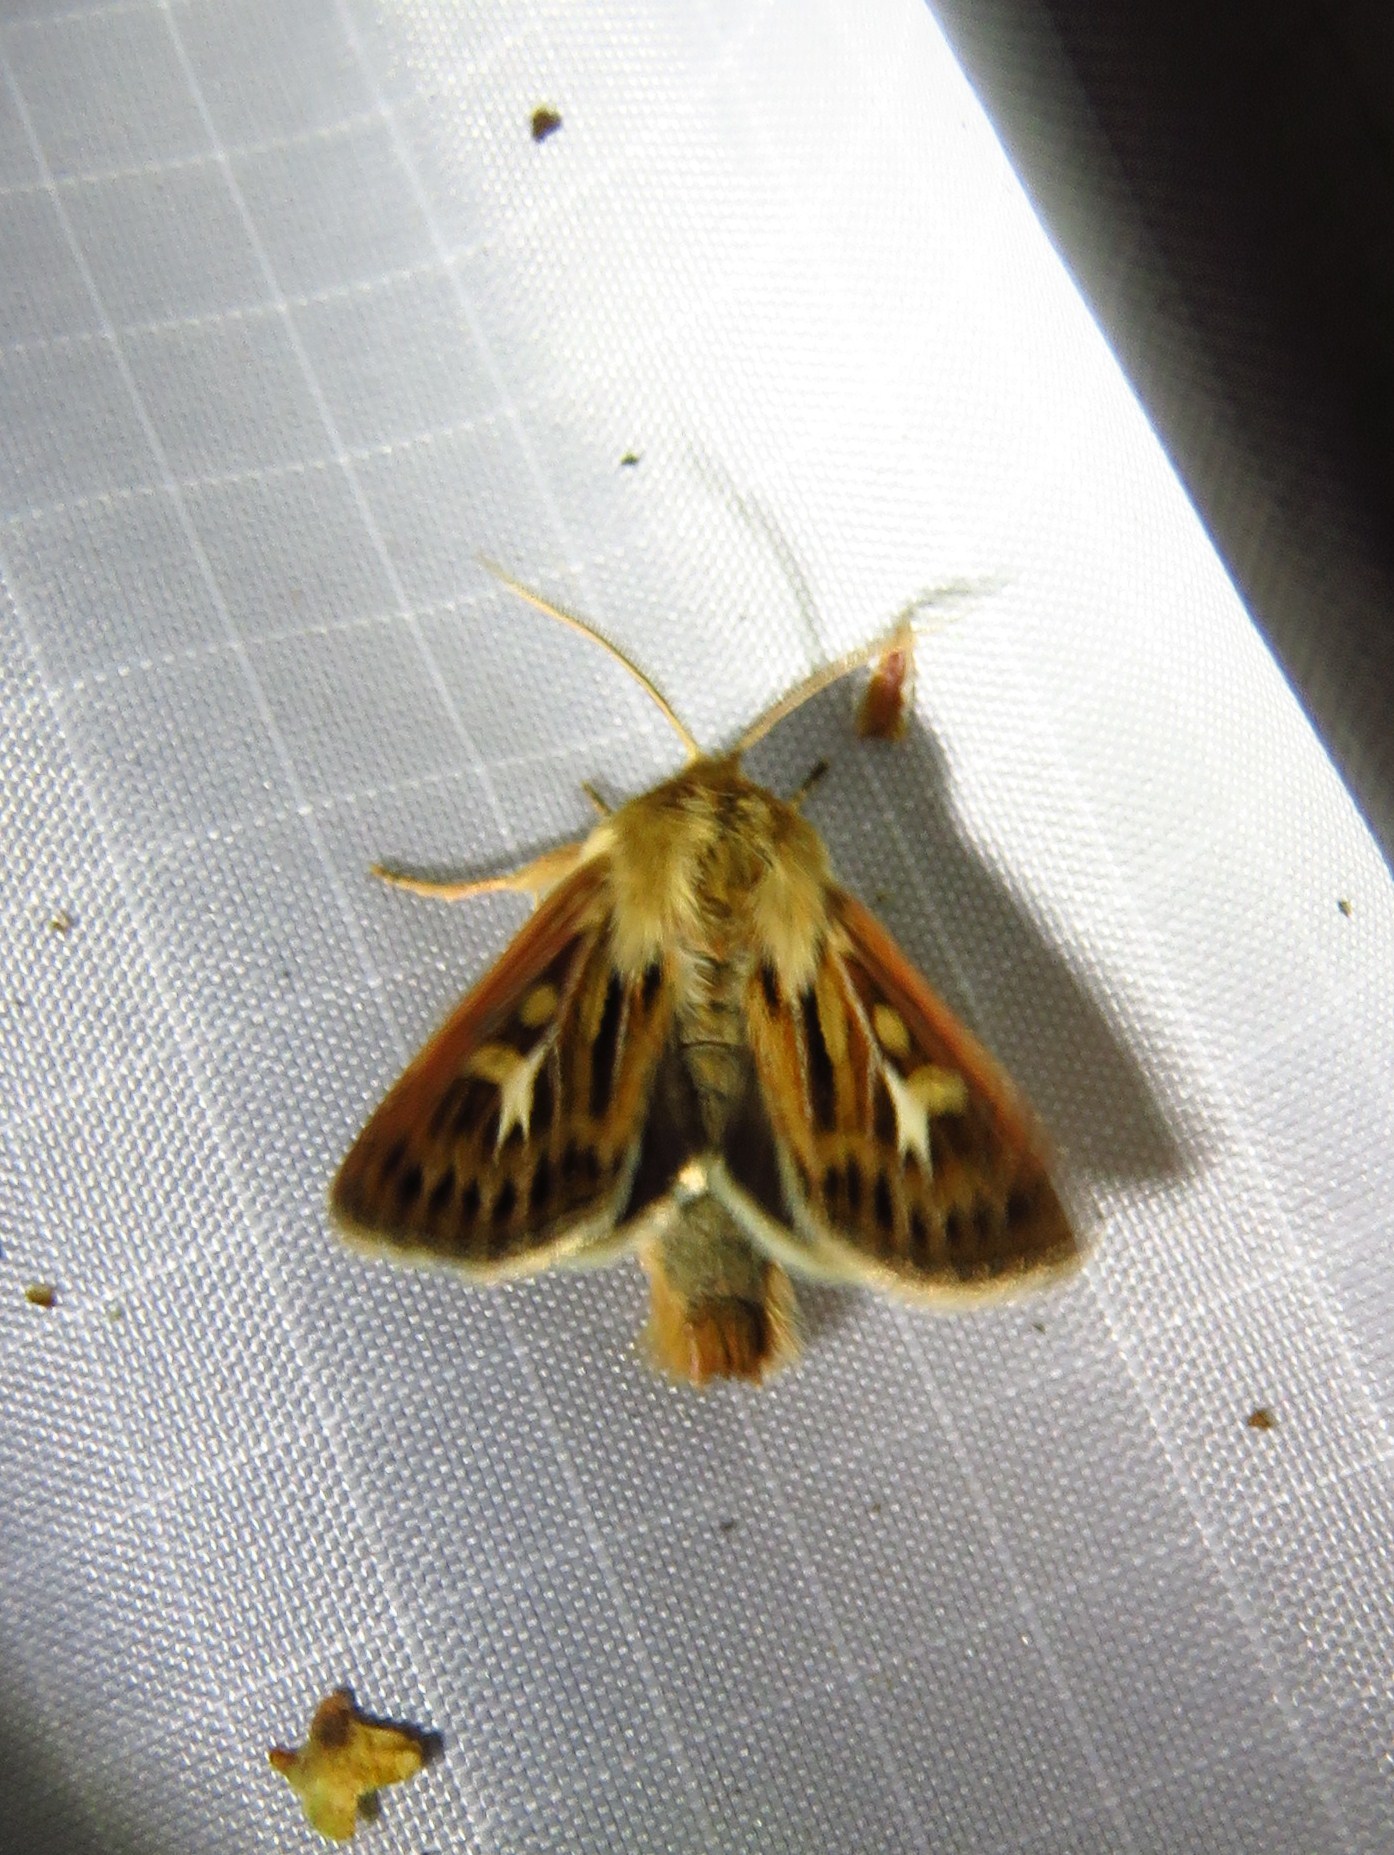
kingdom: Animalia
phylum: Arthropoda
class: Insecta
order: Lepidoptera
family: Noctuidae
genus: Cerapteryx
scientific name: Cerapteryx graminis
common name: Antler moth
